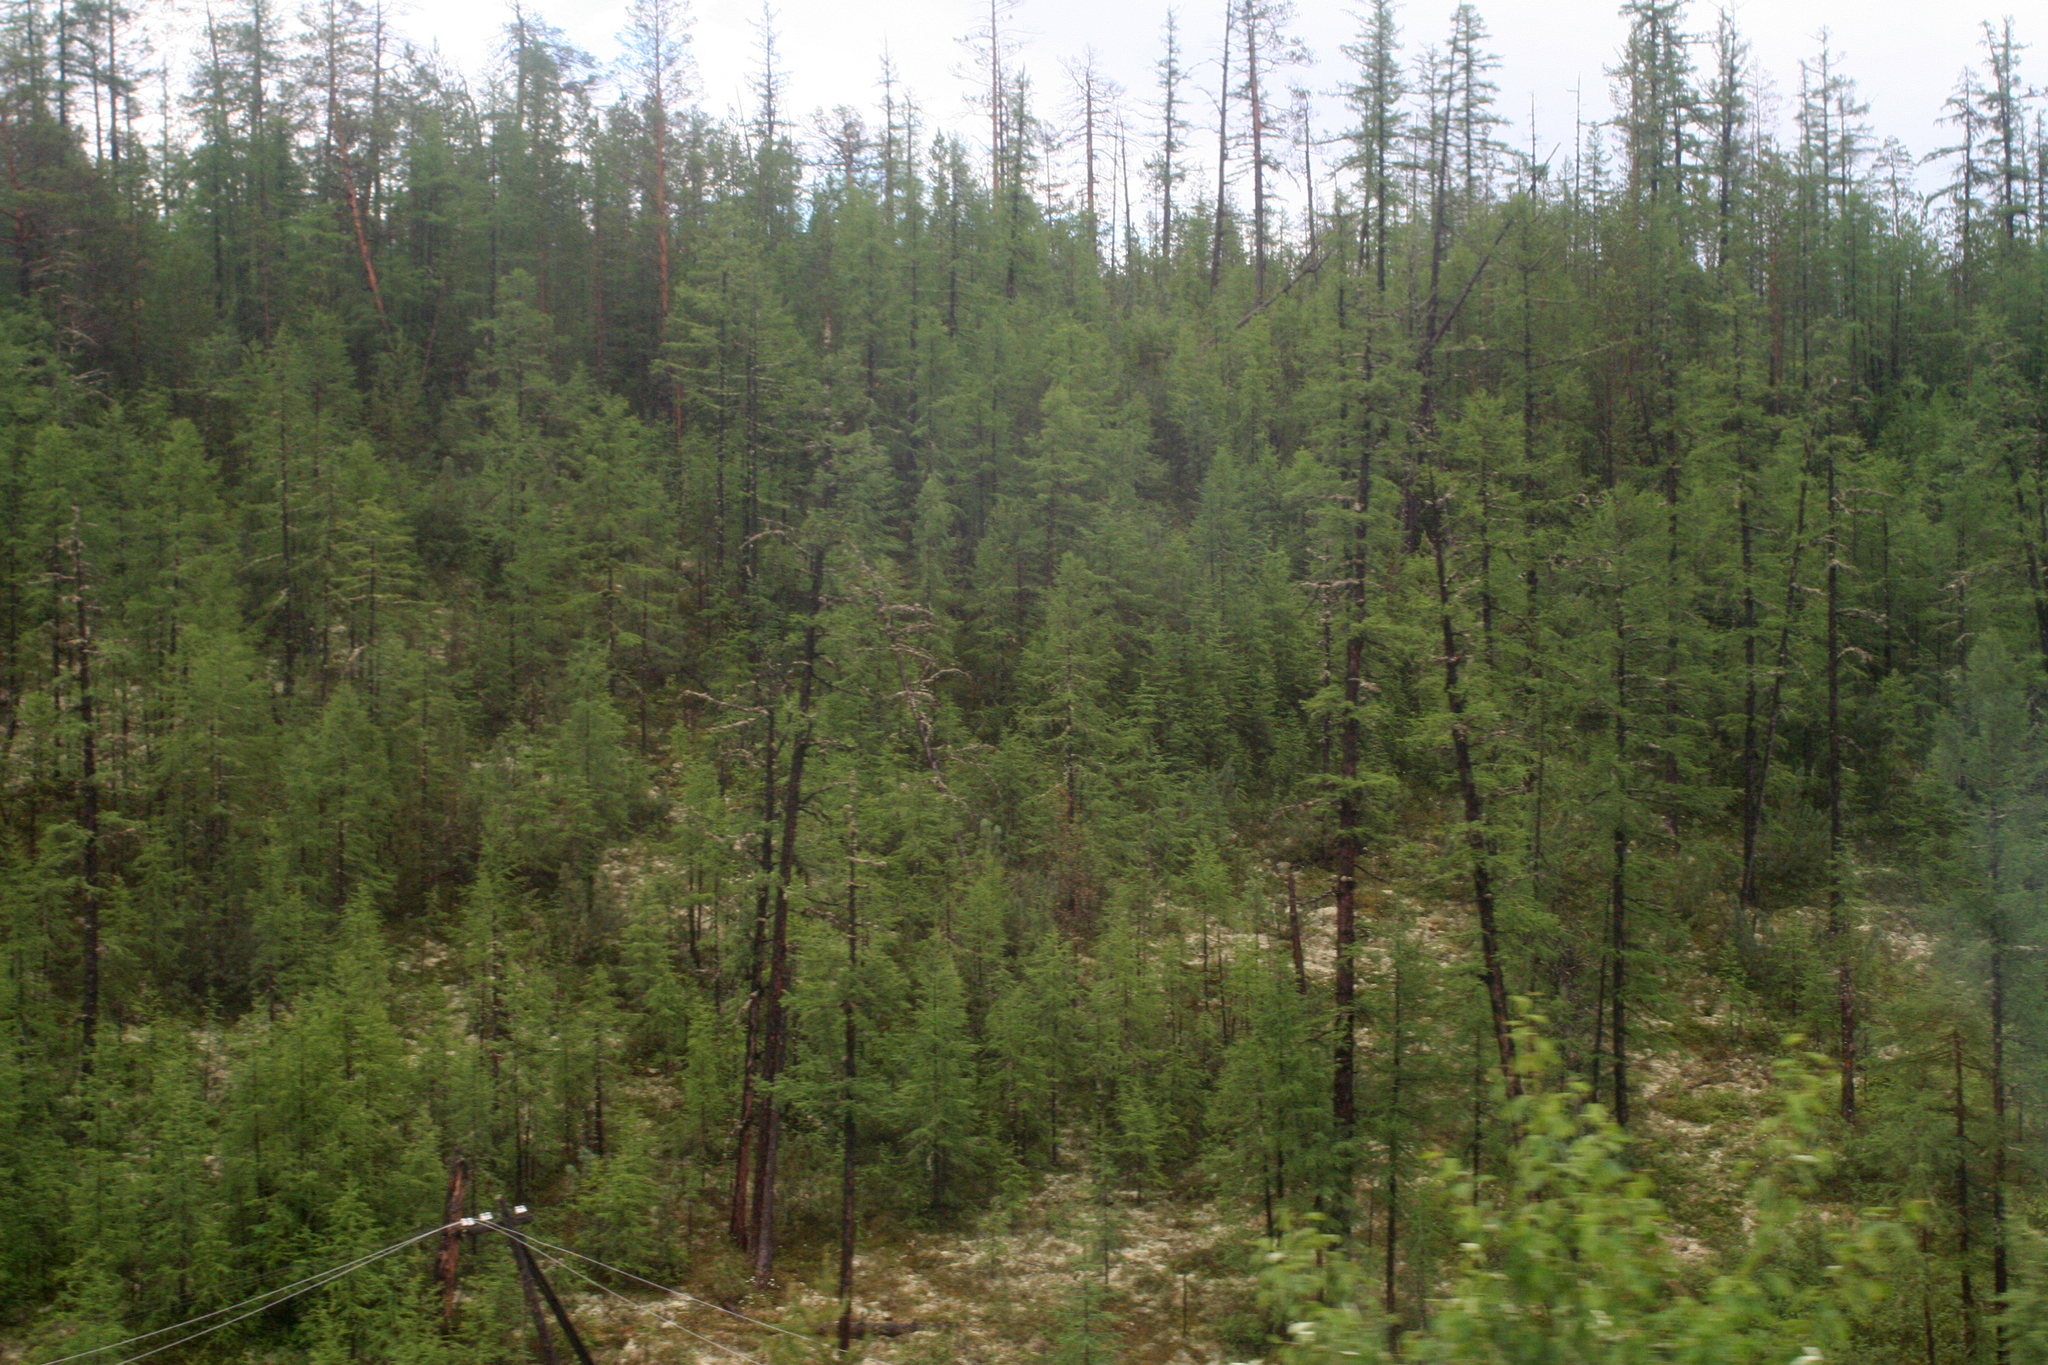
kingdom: Plantae
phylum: Tracheophyta
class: Pinopsida
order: Pinales
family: Pinaceae
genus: Larix
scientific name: Larix gmelinii
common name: Dahurian larch
